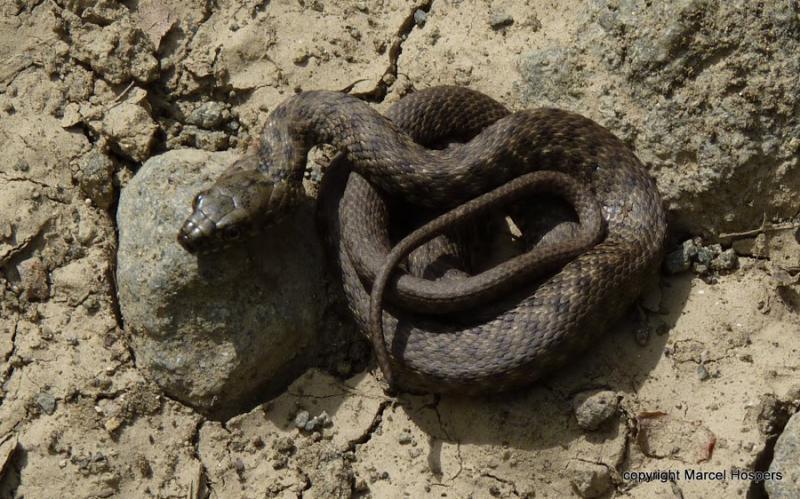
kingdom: Animalia
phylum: Chordata
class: Squamata
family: Colubridae
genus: Natrix
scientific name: Natrix tessellata
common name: Dice snake
